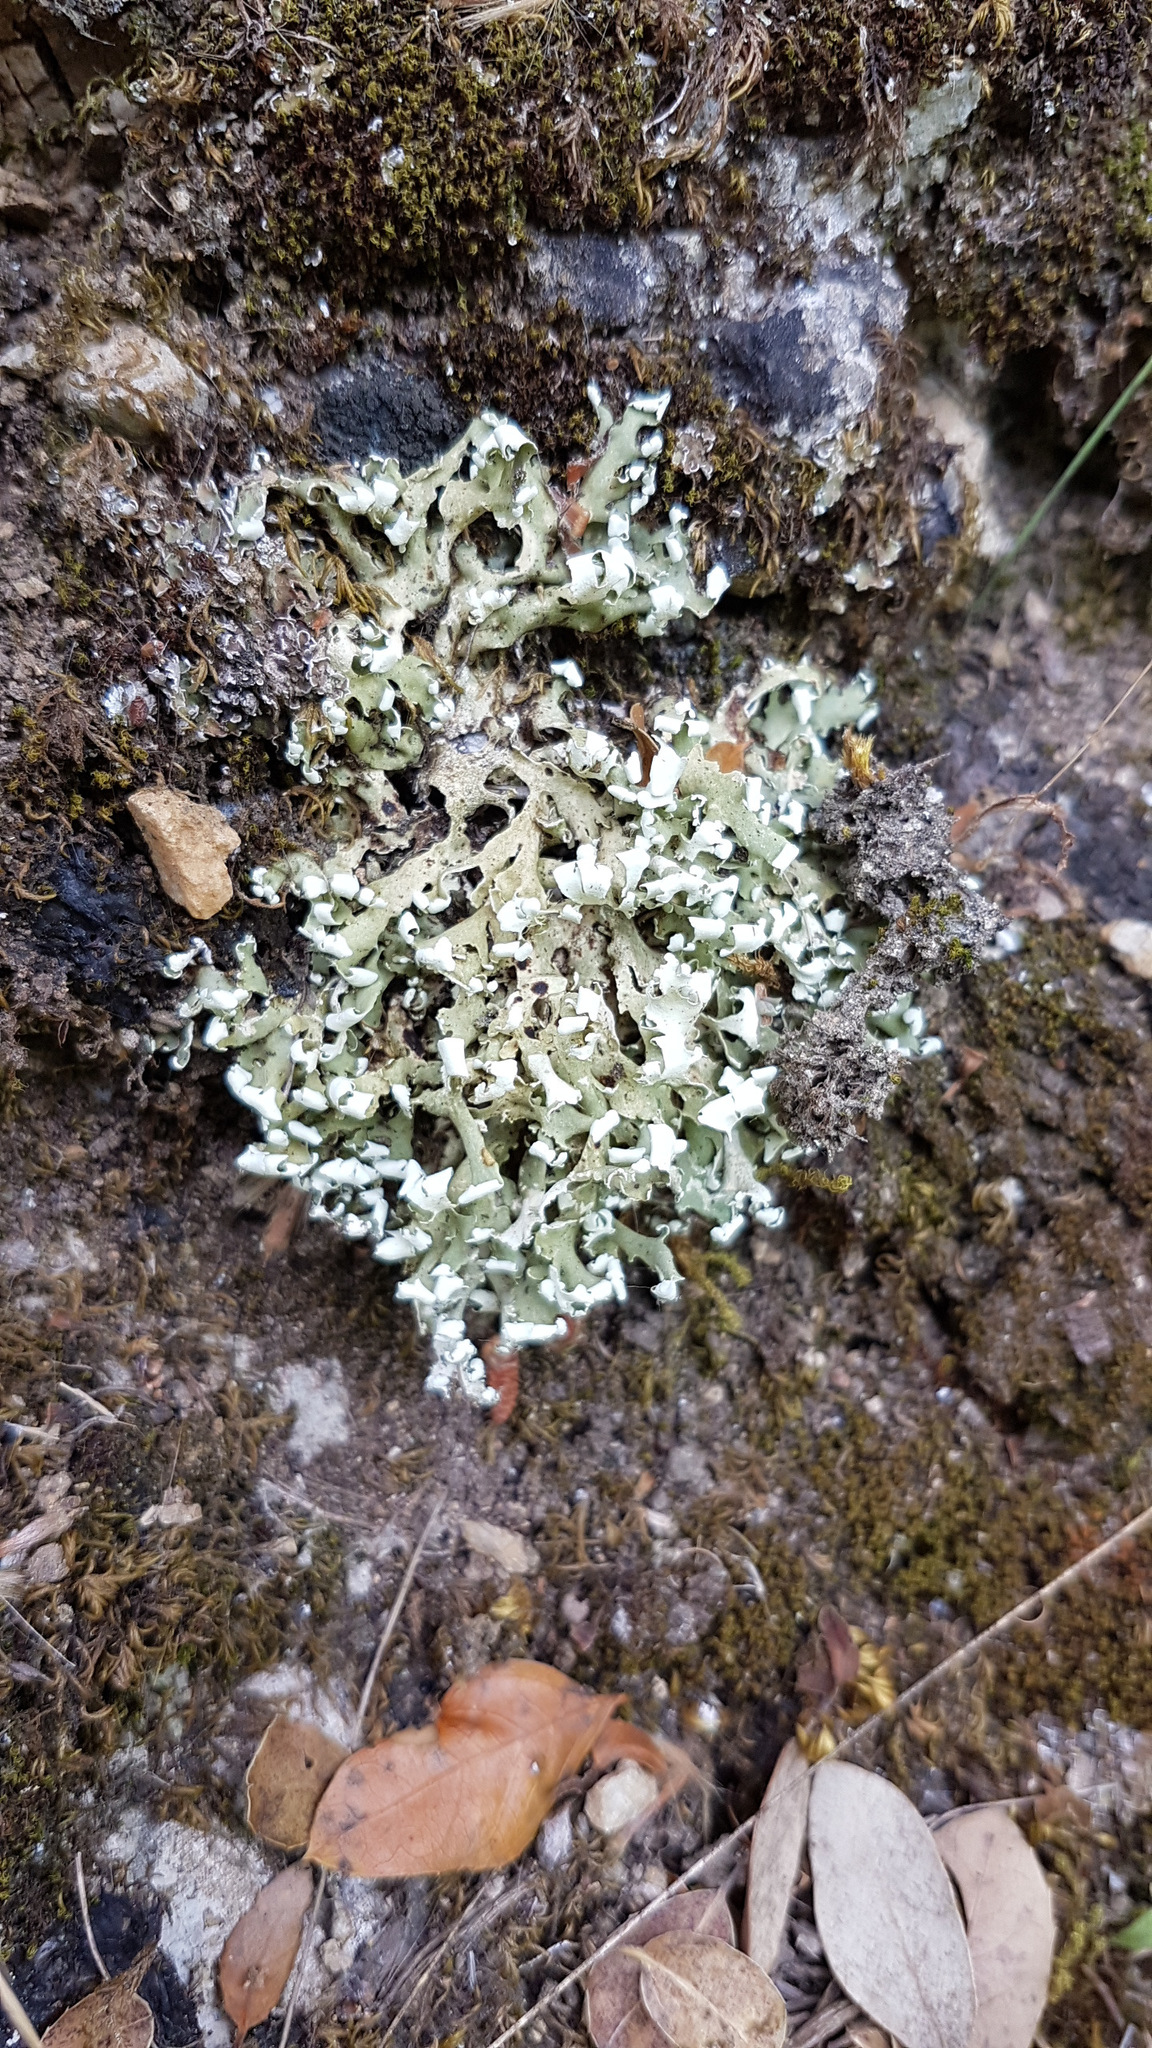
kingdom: Fungi
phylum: Ascomycota
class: Lecanoromycetes
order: Lecanorales
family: Cladoniaceae
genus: Cladonia
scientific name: Cladonia foliacea
